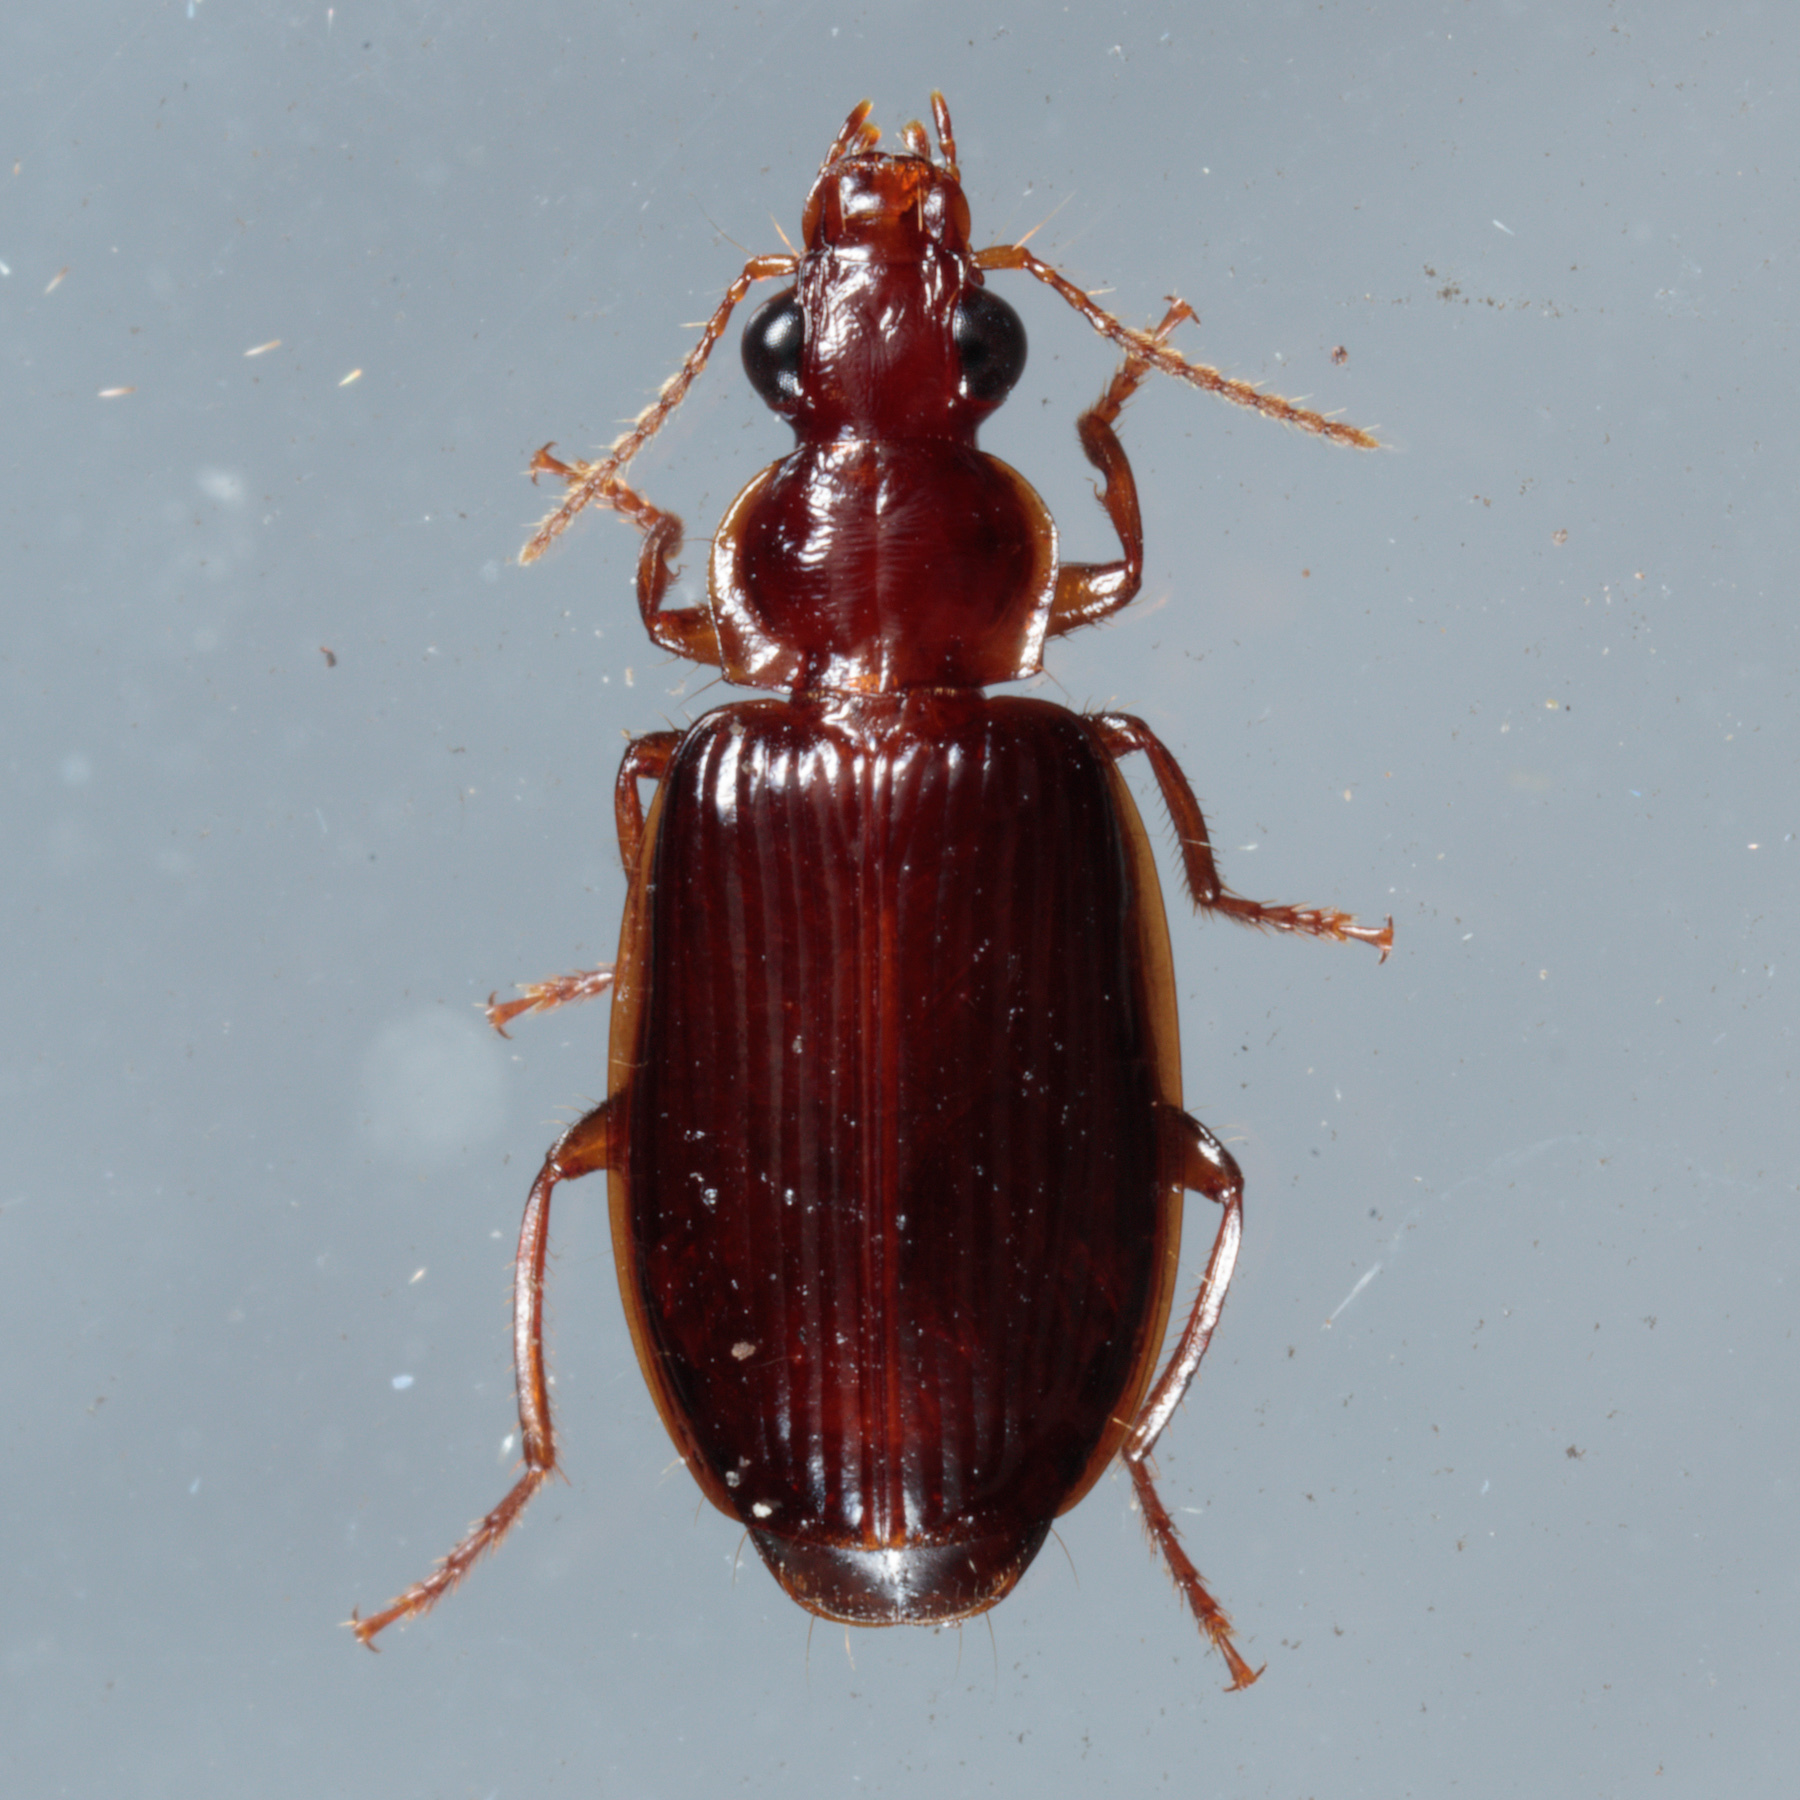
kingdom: Animalia
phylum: Arthropoda
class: Insecta
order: Coleoptera
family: Carabidae
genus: Plochionus
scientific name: Plochionus timidus
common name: Timid harp ground beetle
